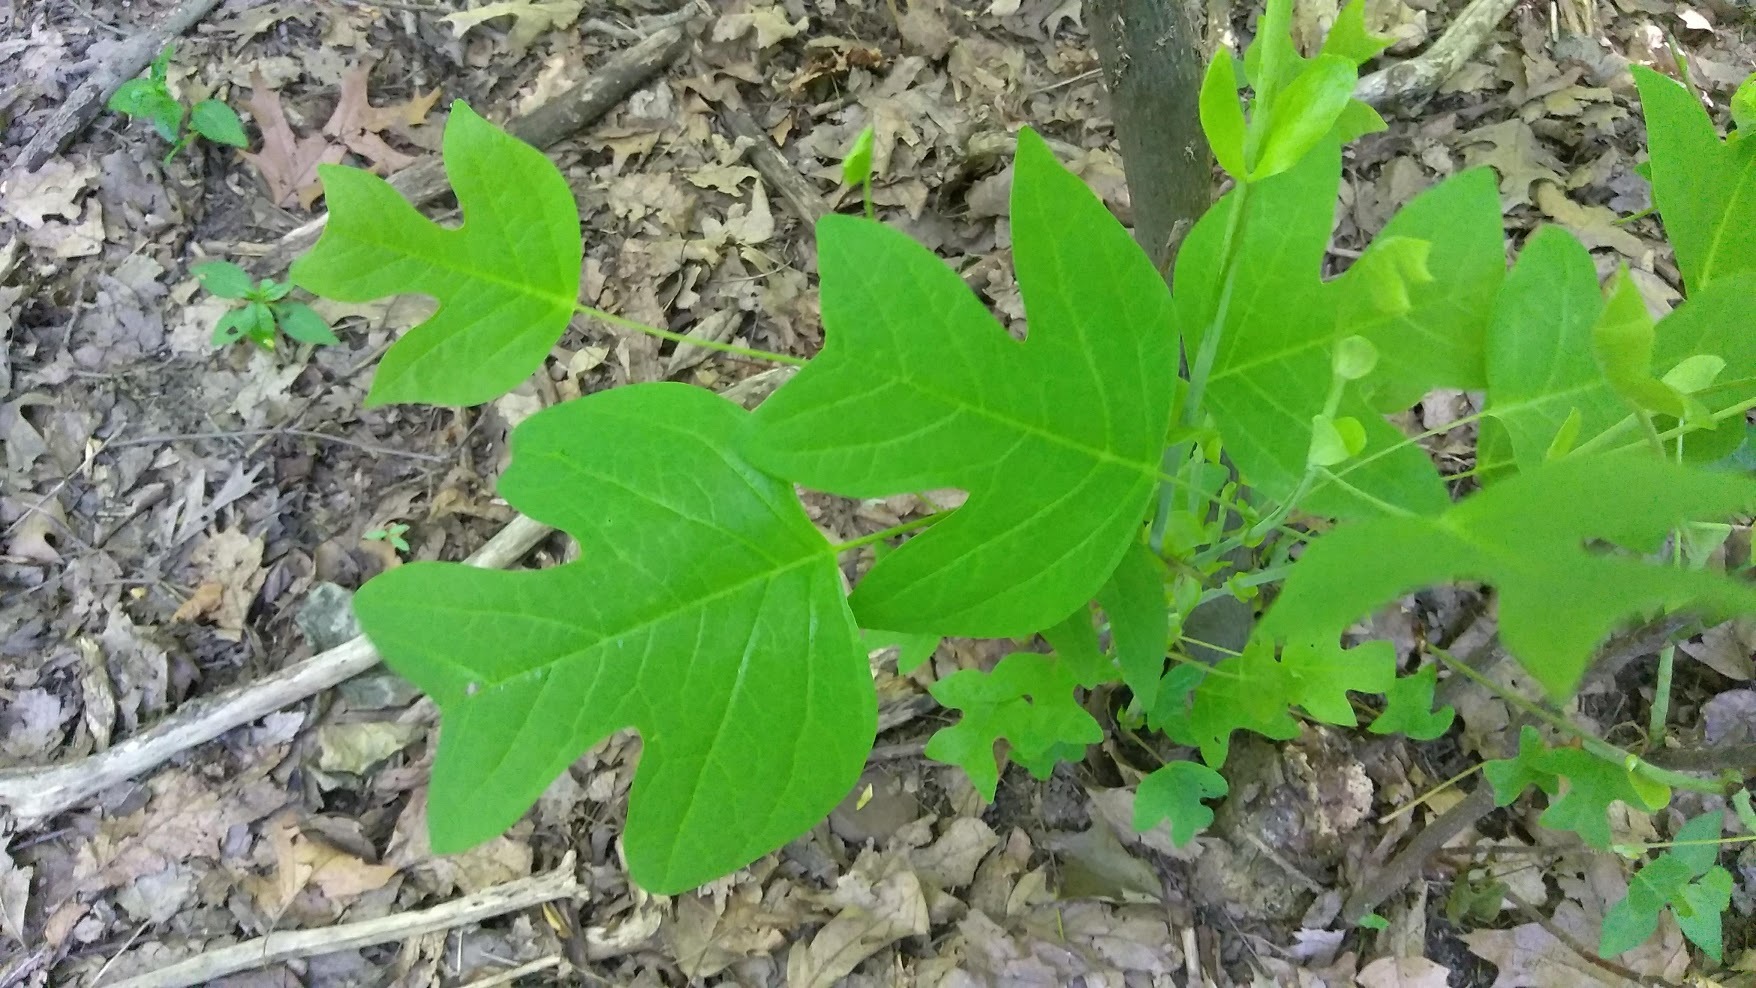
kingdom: Plantae
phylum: Tracheophyta
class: Magnoliopsida
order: Magnoliales
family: Magnoliaceae
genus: Liriodendron
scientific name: Liriodendron tulipifera
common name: Tulip tree
